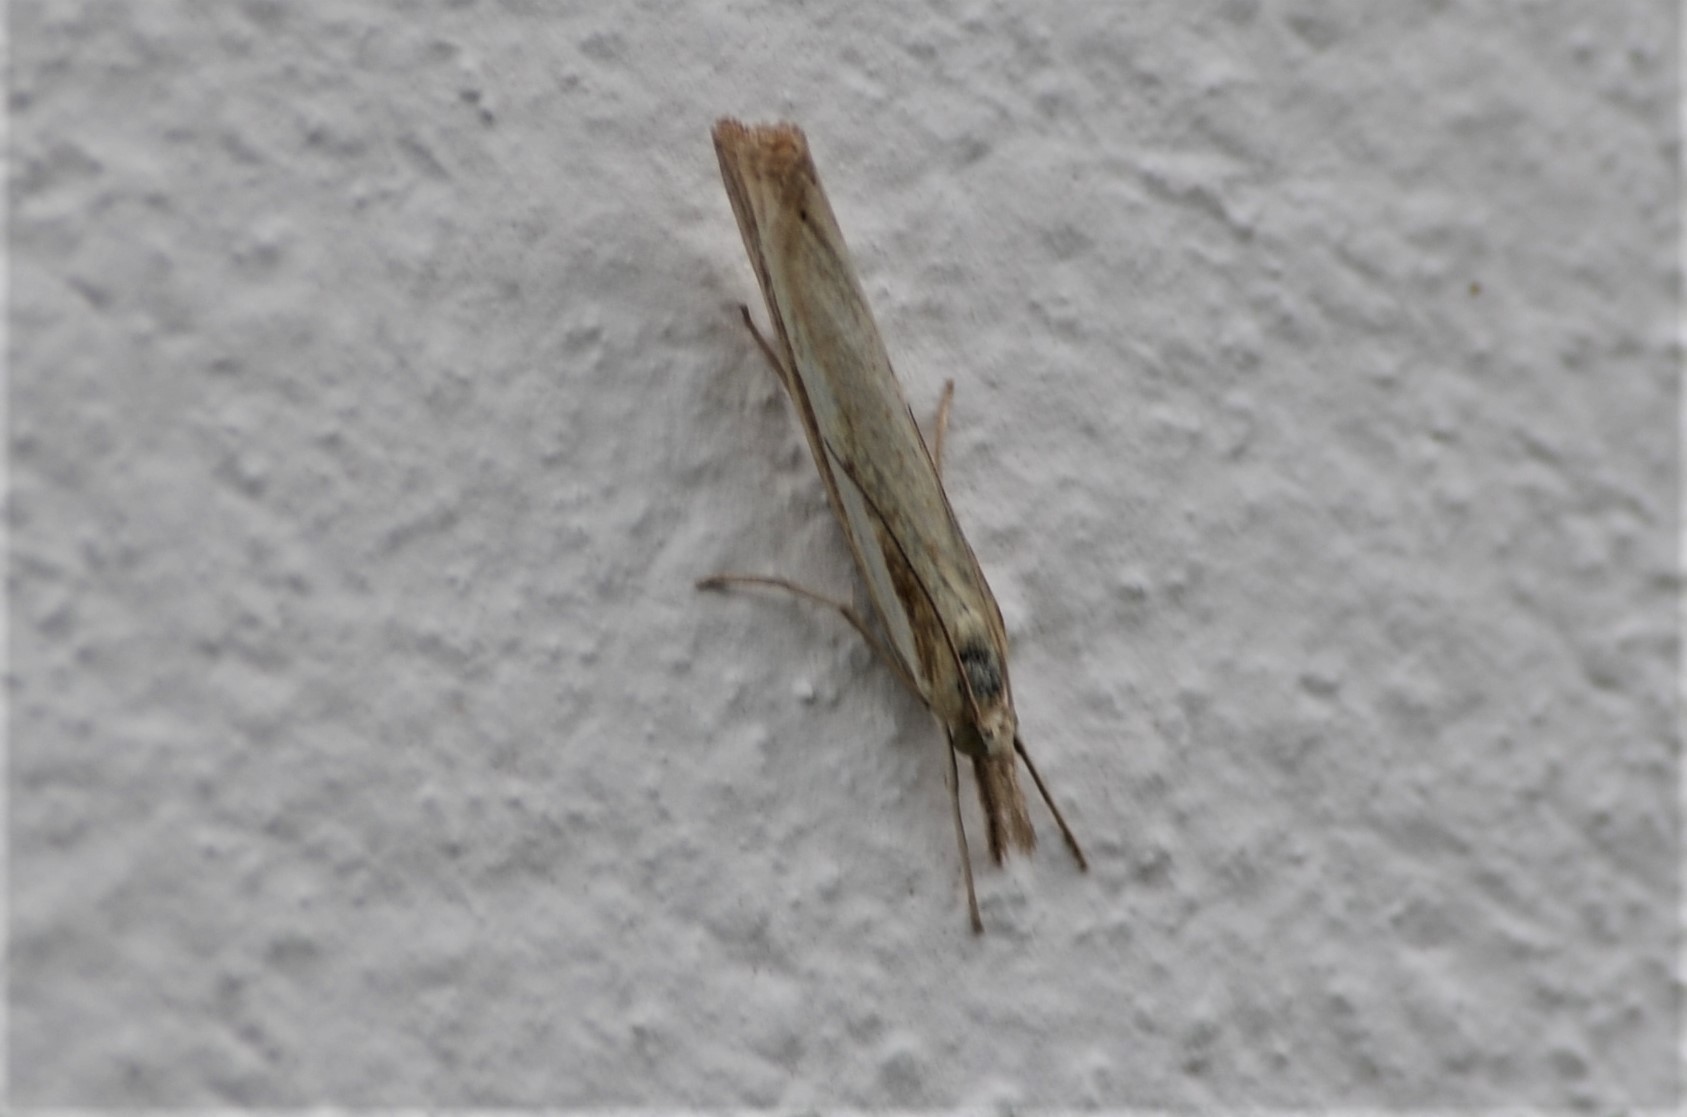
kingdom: Animalia
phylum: Arthropoda
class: Insecta
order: Lepidoptera
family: Crambidae
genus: Agriphila
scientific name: Agriphila tristellus
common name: Common grass-veneer
